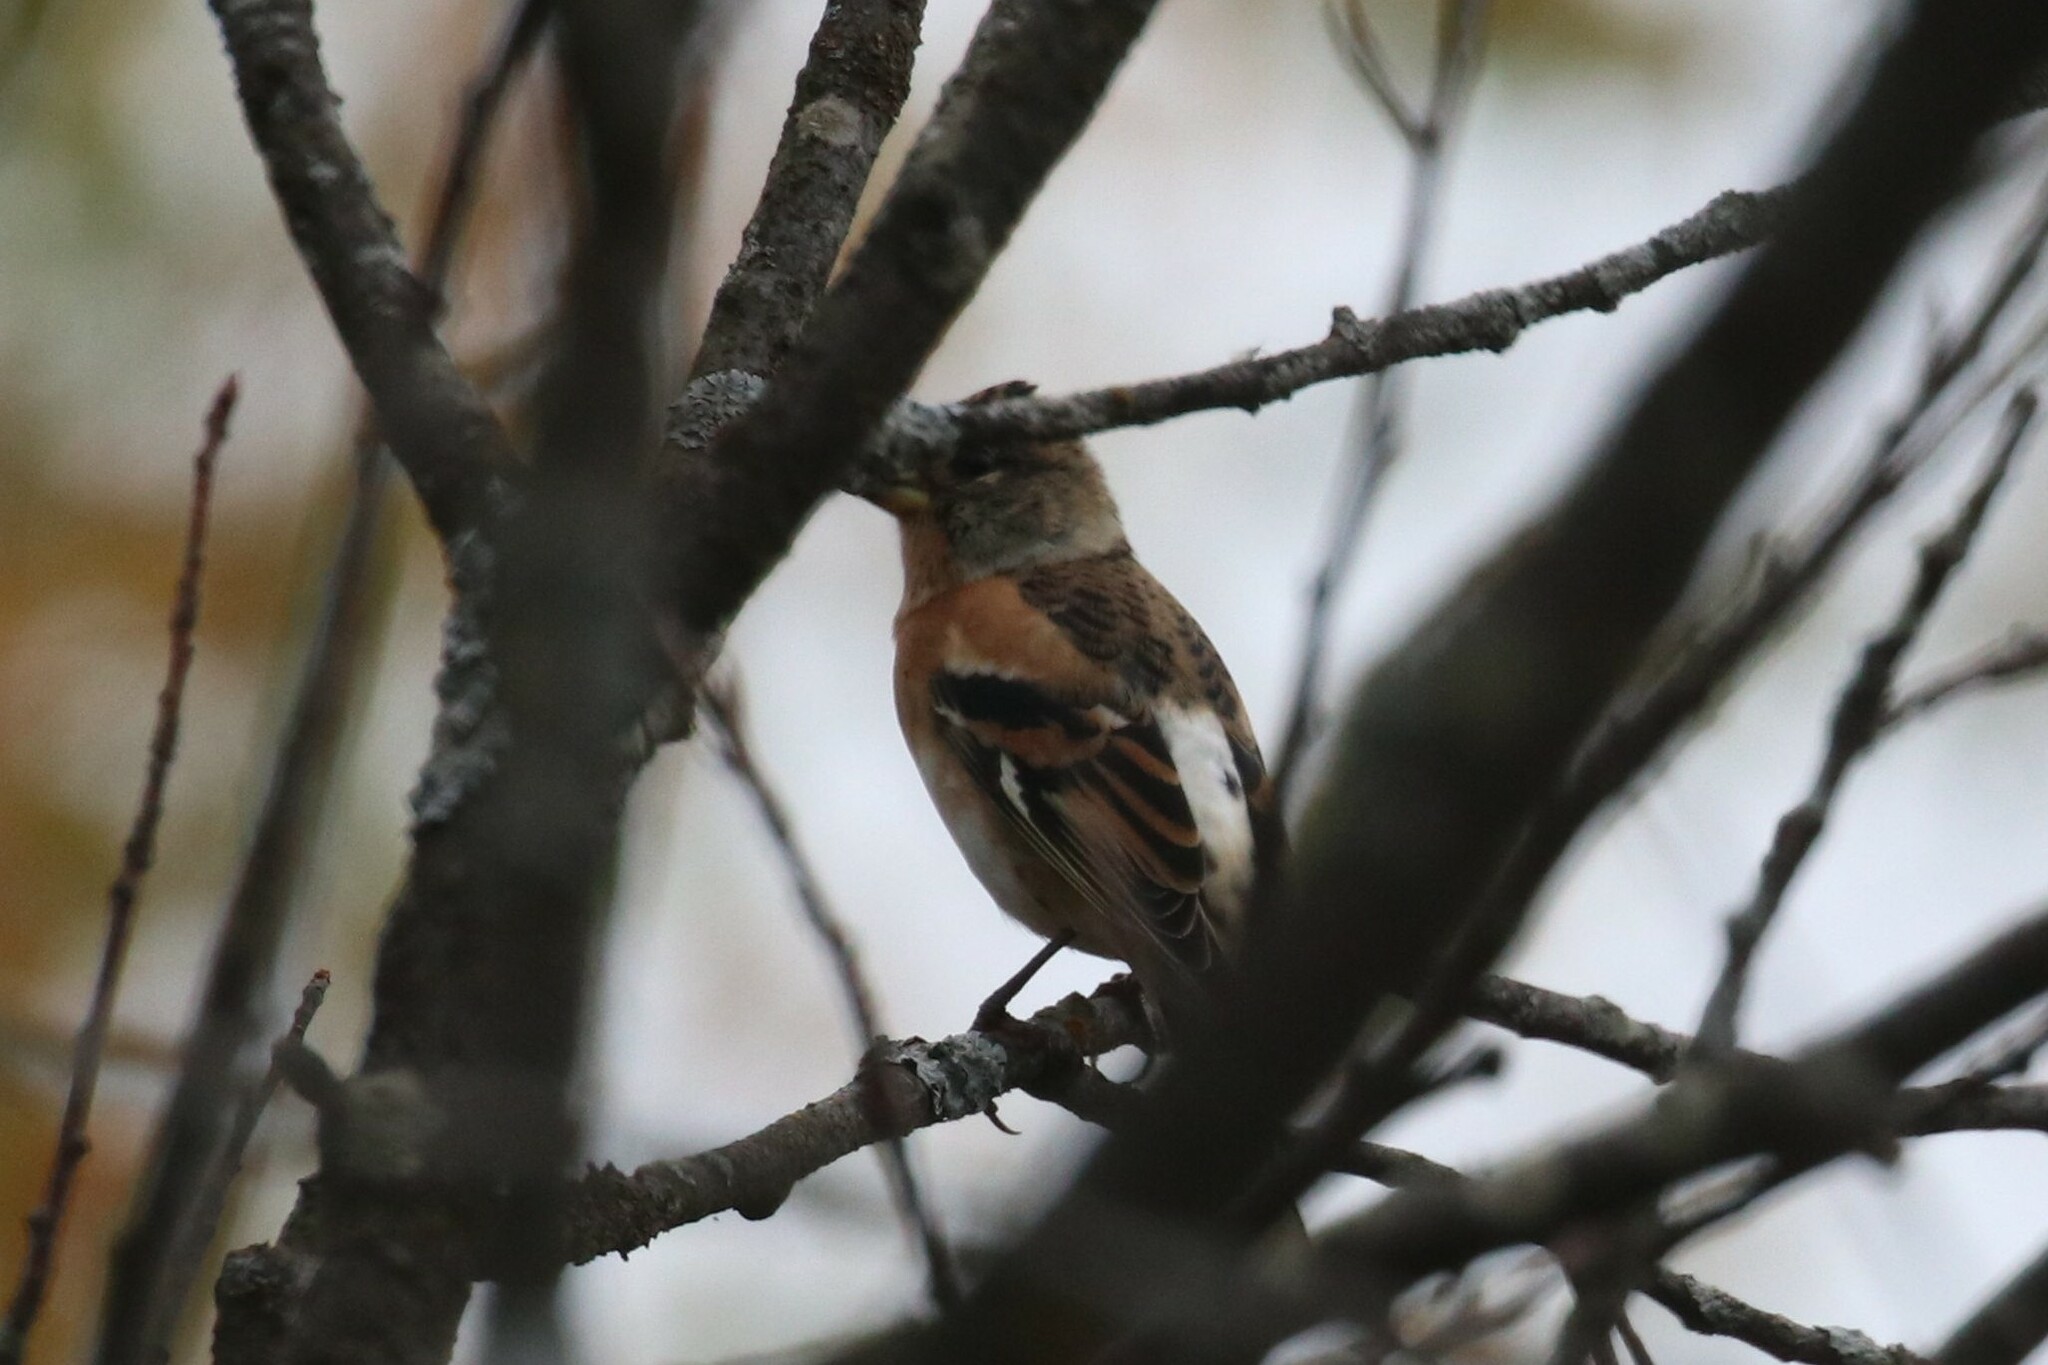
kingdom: Animalia
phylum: Chordata
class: Aves
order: Passeriformes
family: Fringillidae
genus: Fringilla
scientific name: Fringilla montifringilla
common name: Brambling
